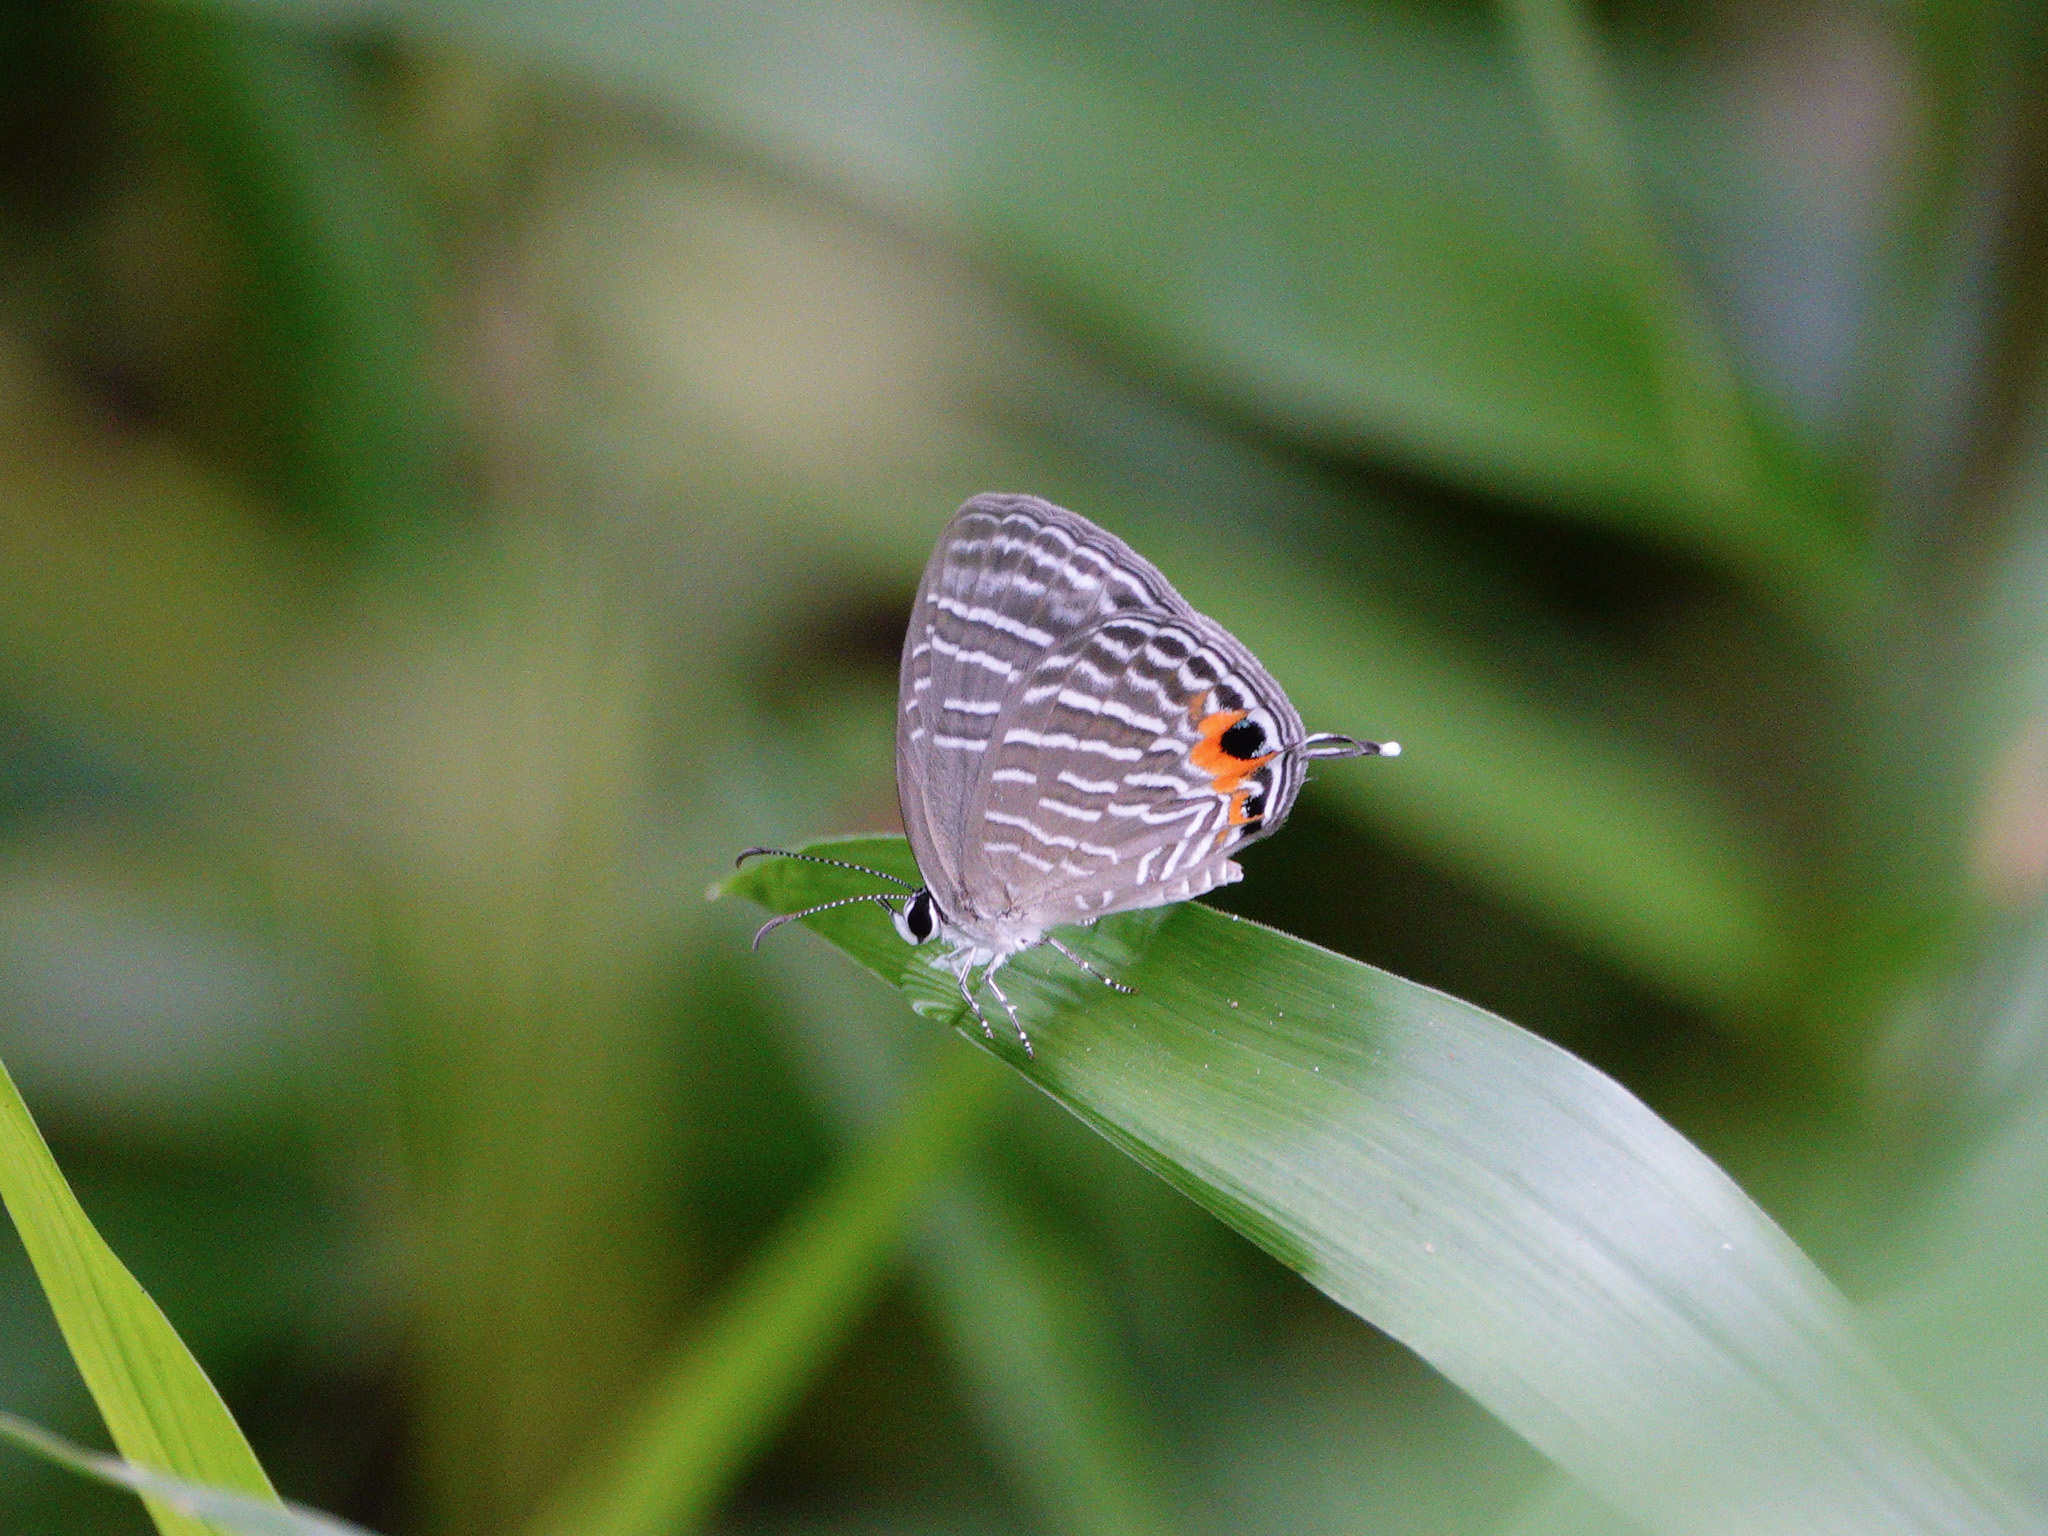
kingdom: Animalia
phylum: Arthropoda
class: Insecta
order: Lepidoptera
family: Lycaenidae
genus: Jamides
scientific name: Jamides celeno
